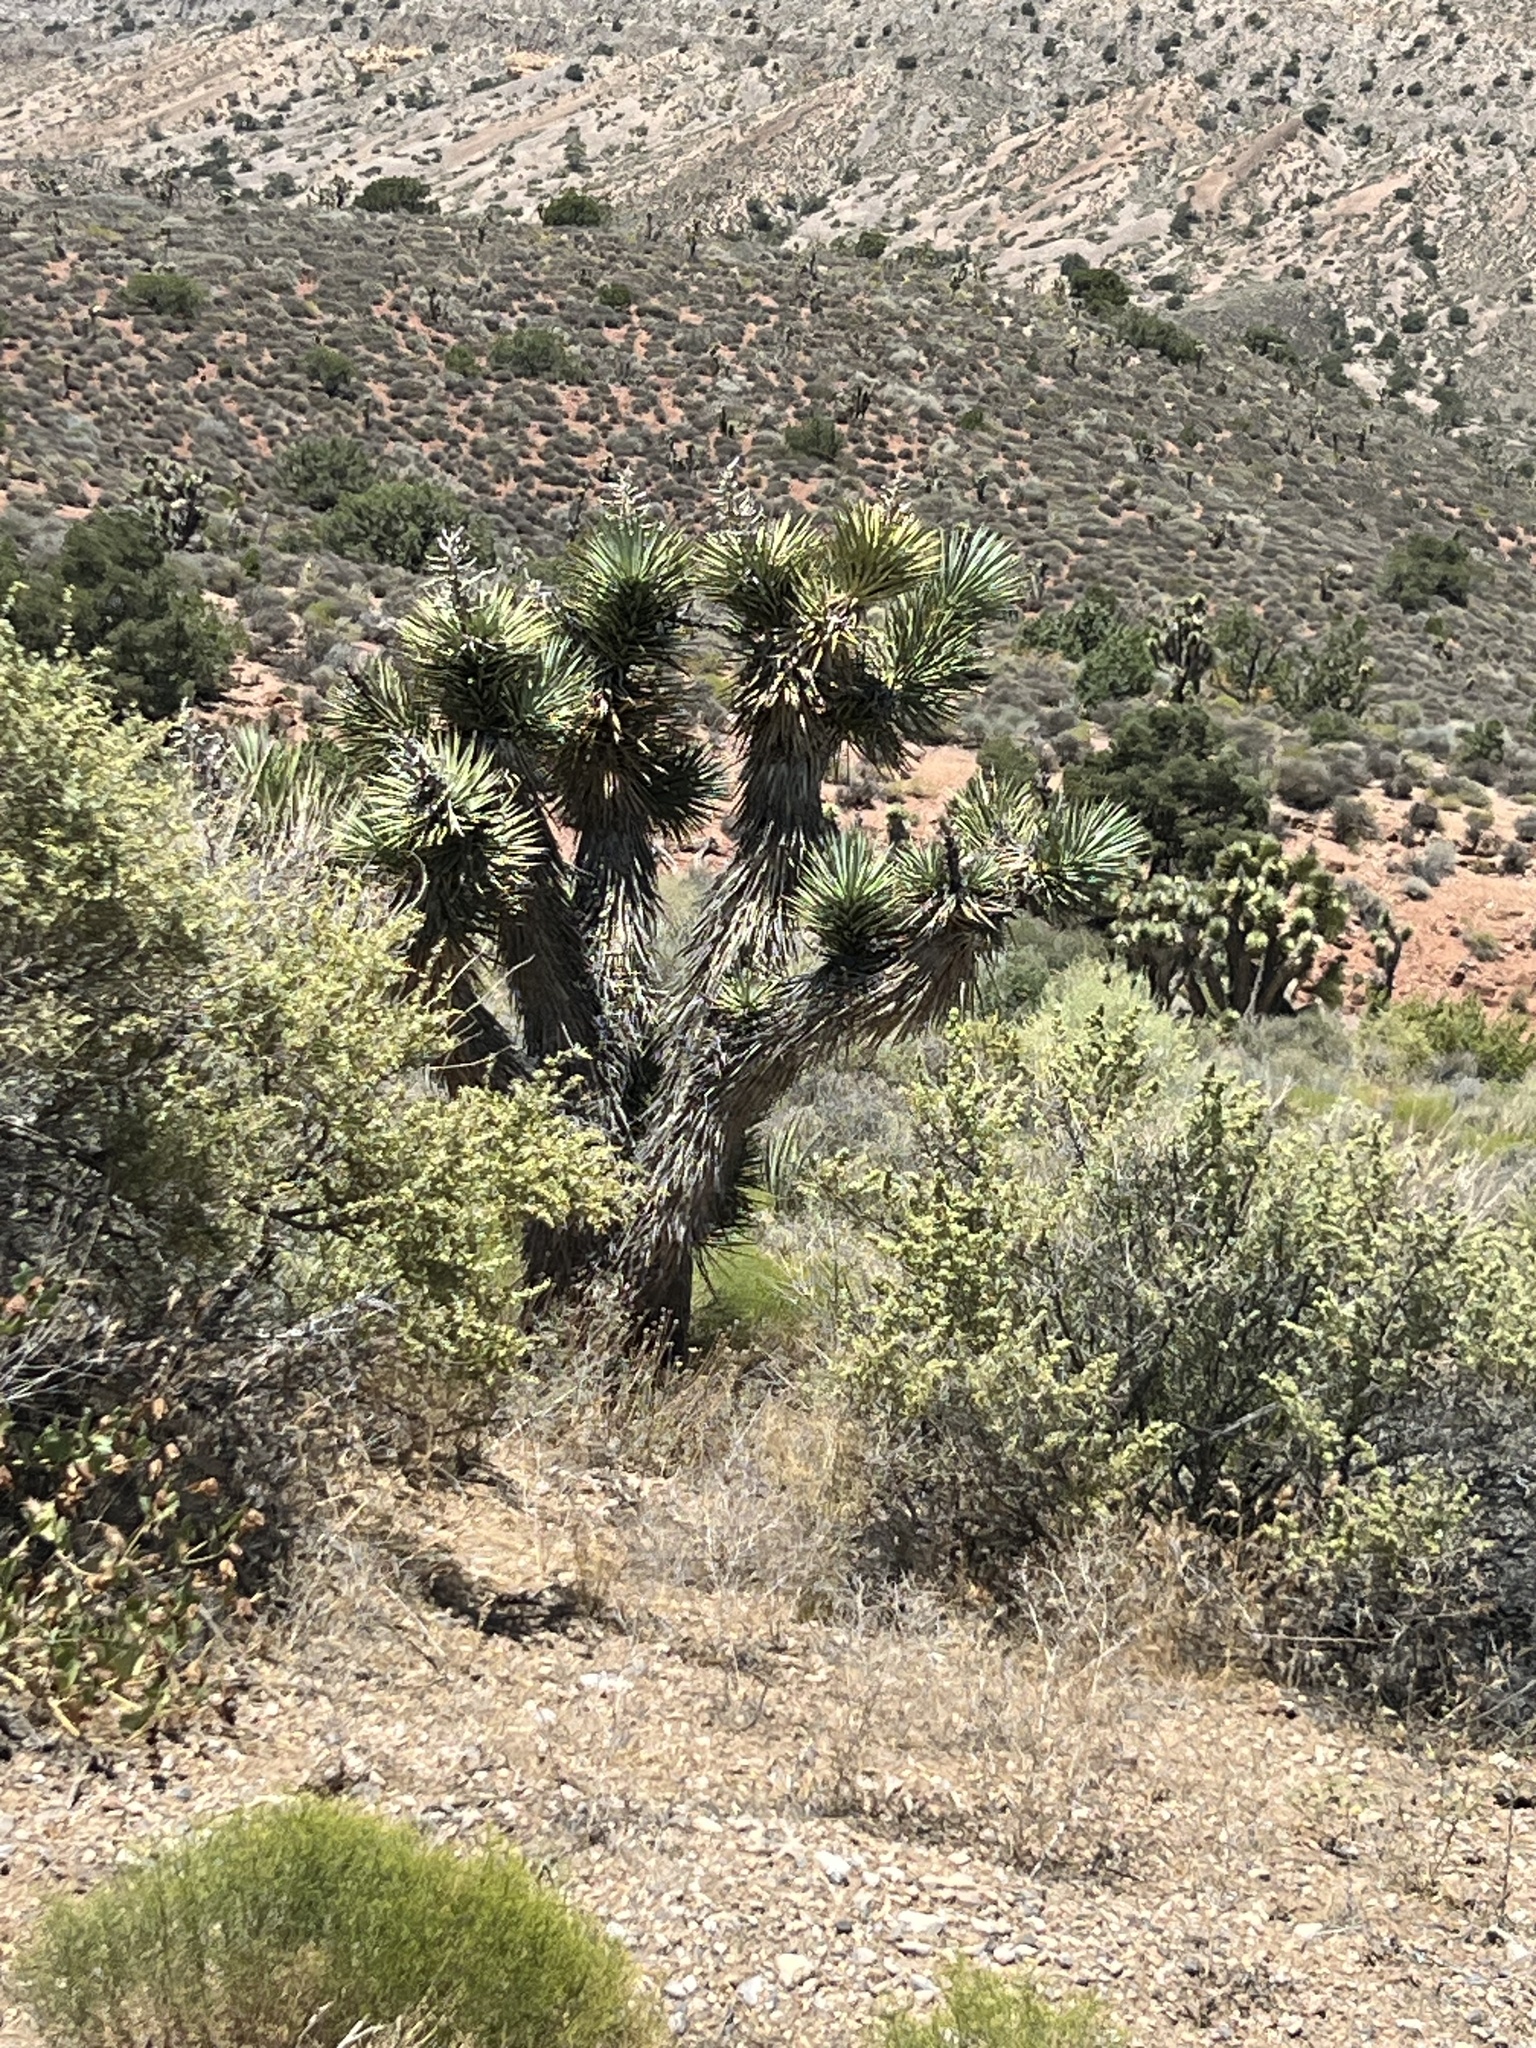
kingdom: Plantae
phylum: Tracheophyta
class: Liliopsida
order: Asparagales
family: Asparagaceae
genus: Yucca
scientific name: Yucca brevifolia
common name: Joshua tree
